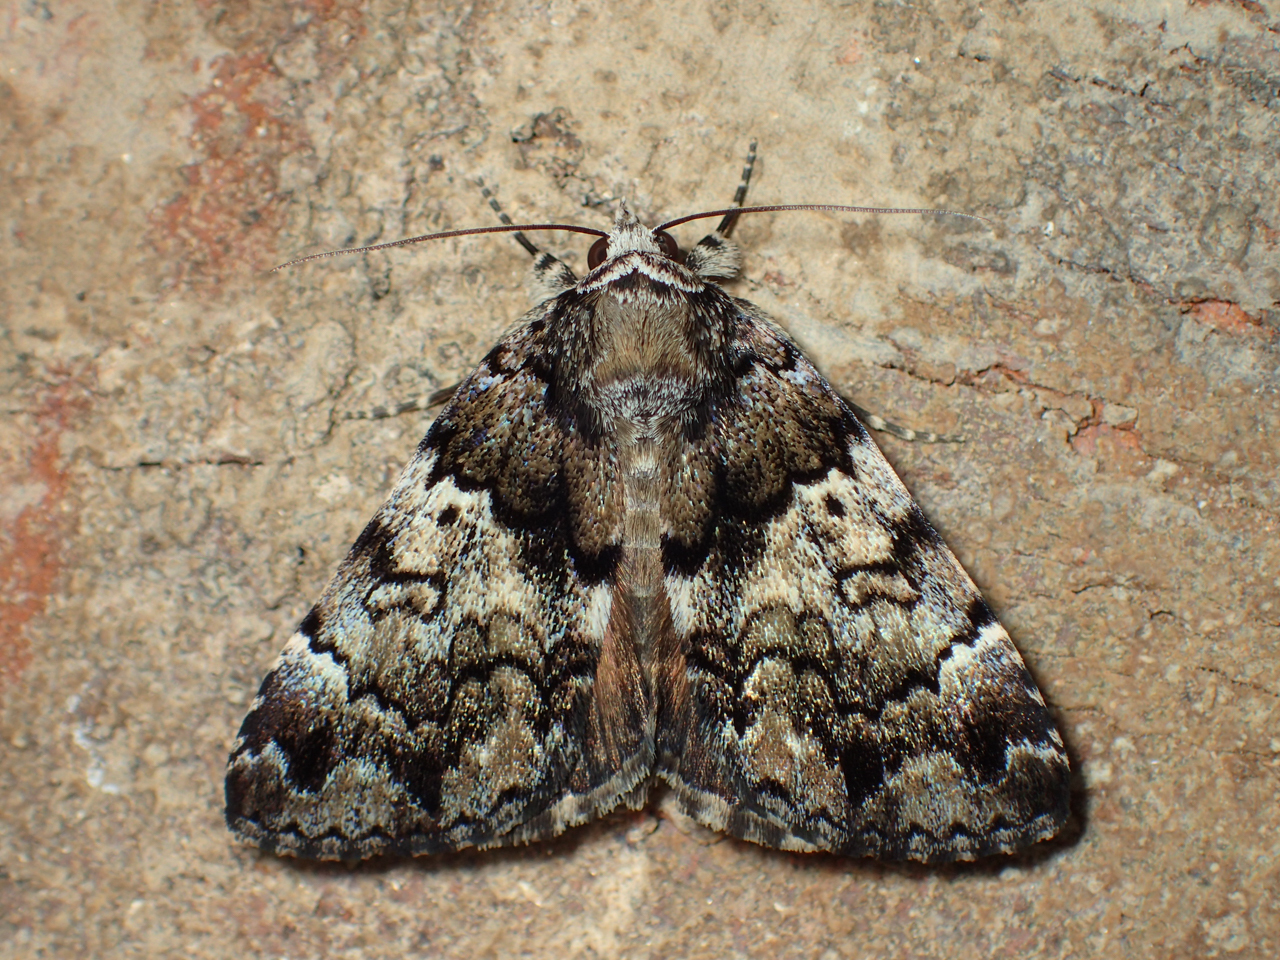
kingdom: Animalia
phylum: Arthropoda
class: Insecta
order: Lepidoptera
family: Erebidae
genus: Allotria
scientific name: Allotria elonympha
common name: False underwing
